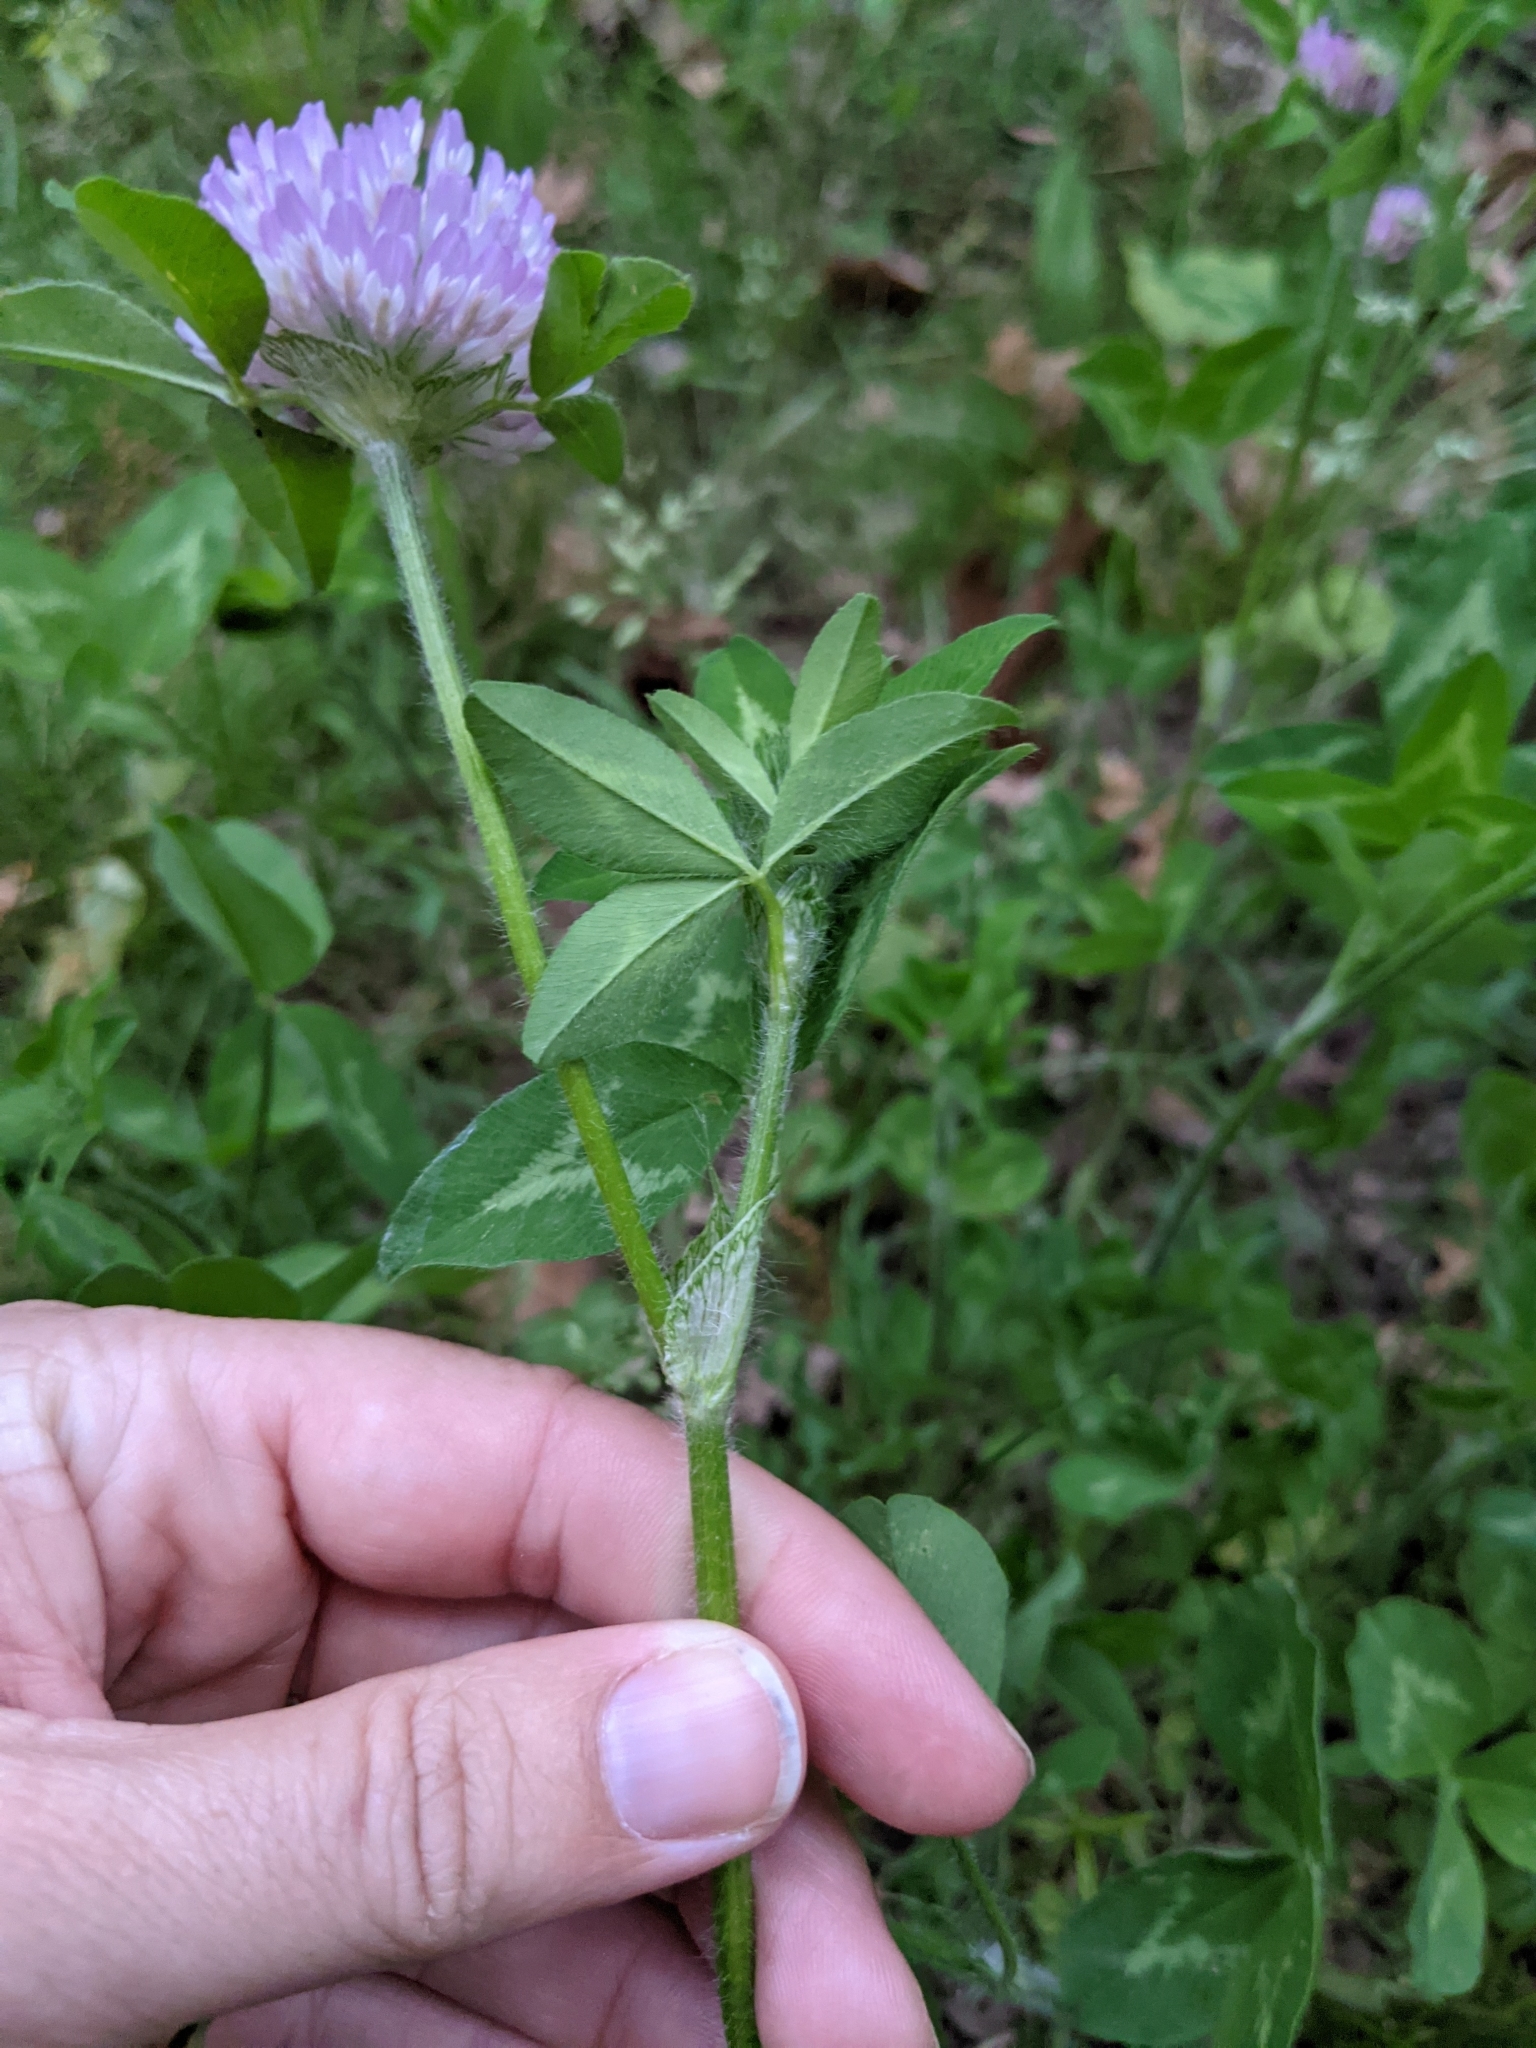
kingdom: Plantae
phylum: Tracheophyta
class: Magnoliopsida
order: Fabales
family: Fabaceae
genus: Trifolium
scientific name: Trifolium pratense
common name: Red clover
